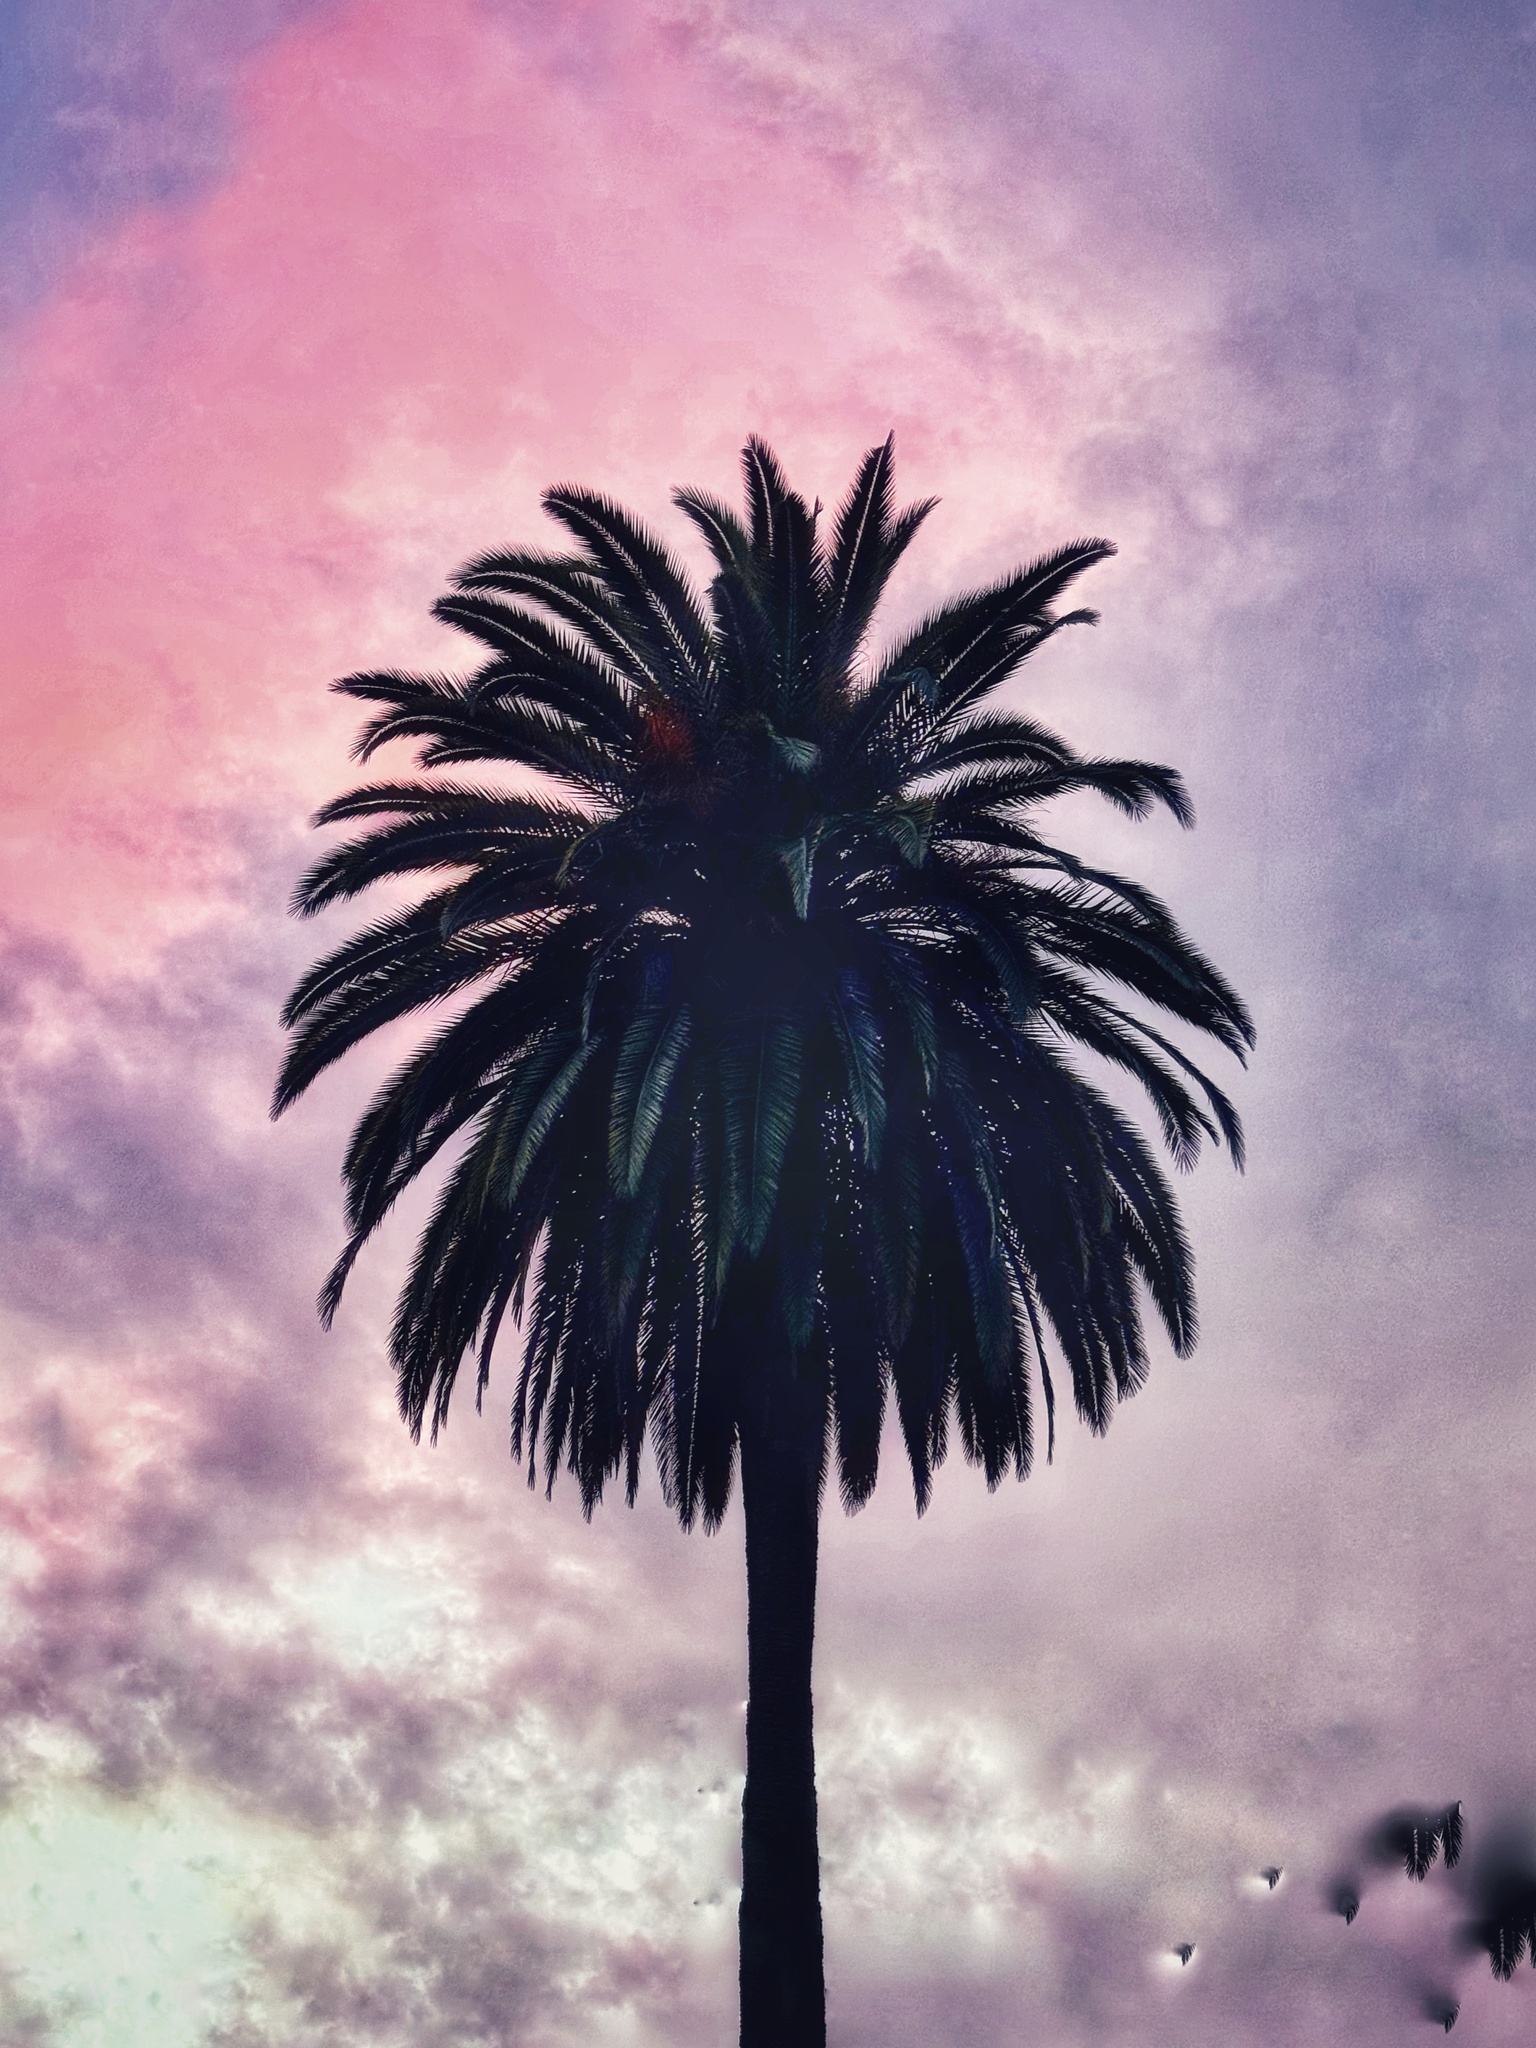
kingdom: Plantae
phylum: Tracheophyta
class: Liliopsida
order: Arecales
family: Arecaceae
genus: Phoenix
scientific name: Phoenix canariensis
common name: Canary island date palm
